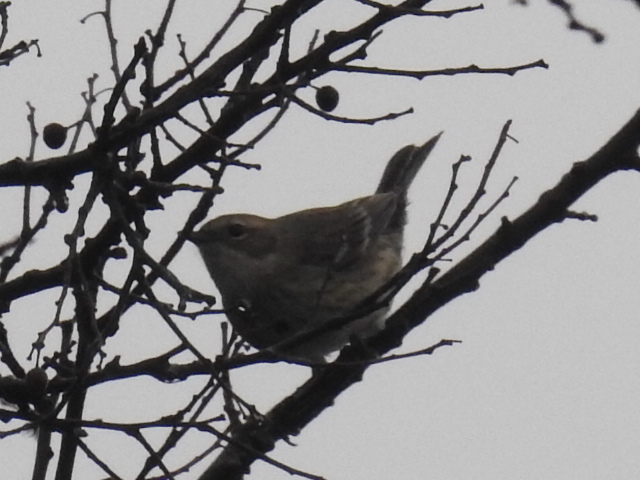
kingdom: Animalia
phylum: Chordata
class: Aves
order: Passeriformes
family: Parulidae
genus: Setophaga
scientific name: Setophaga coronata
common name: Myrtle warbler
